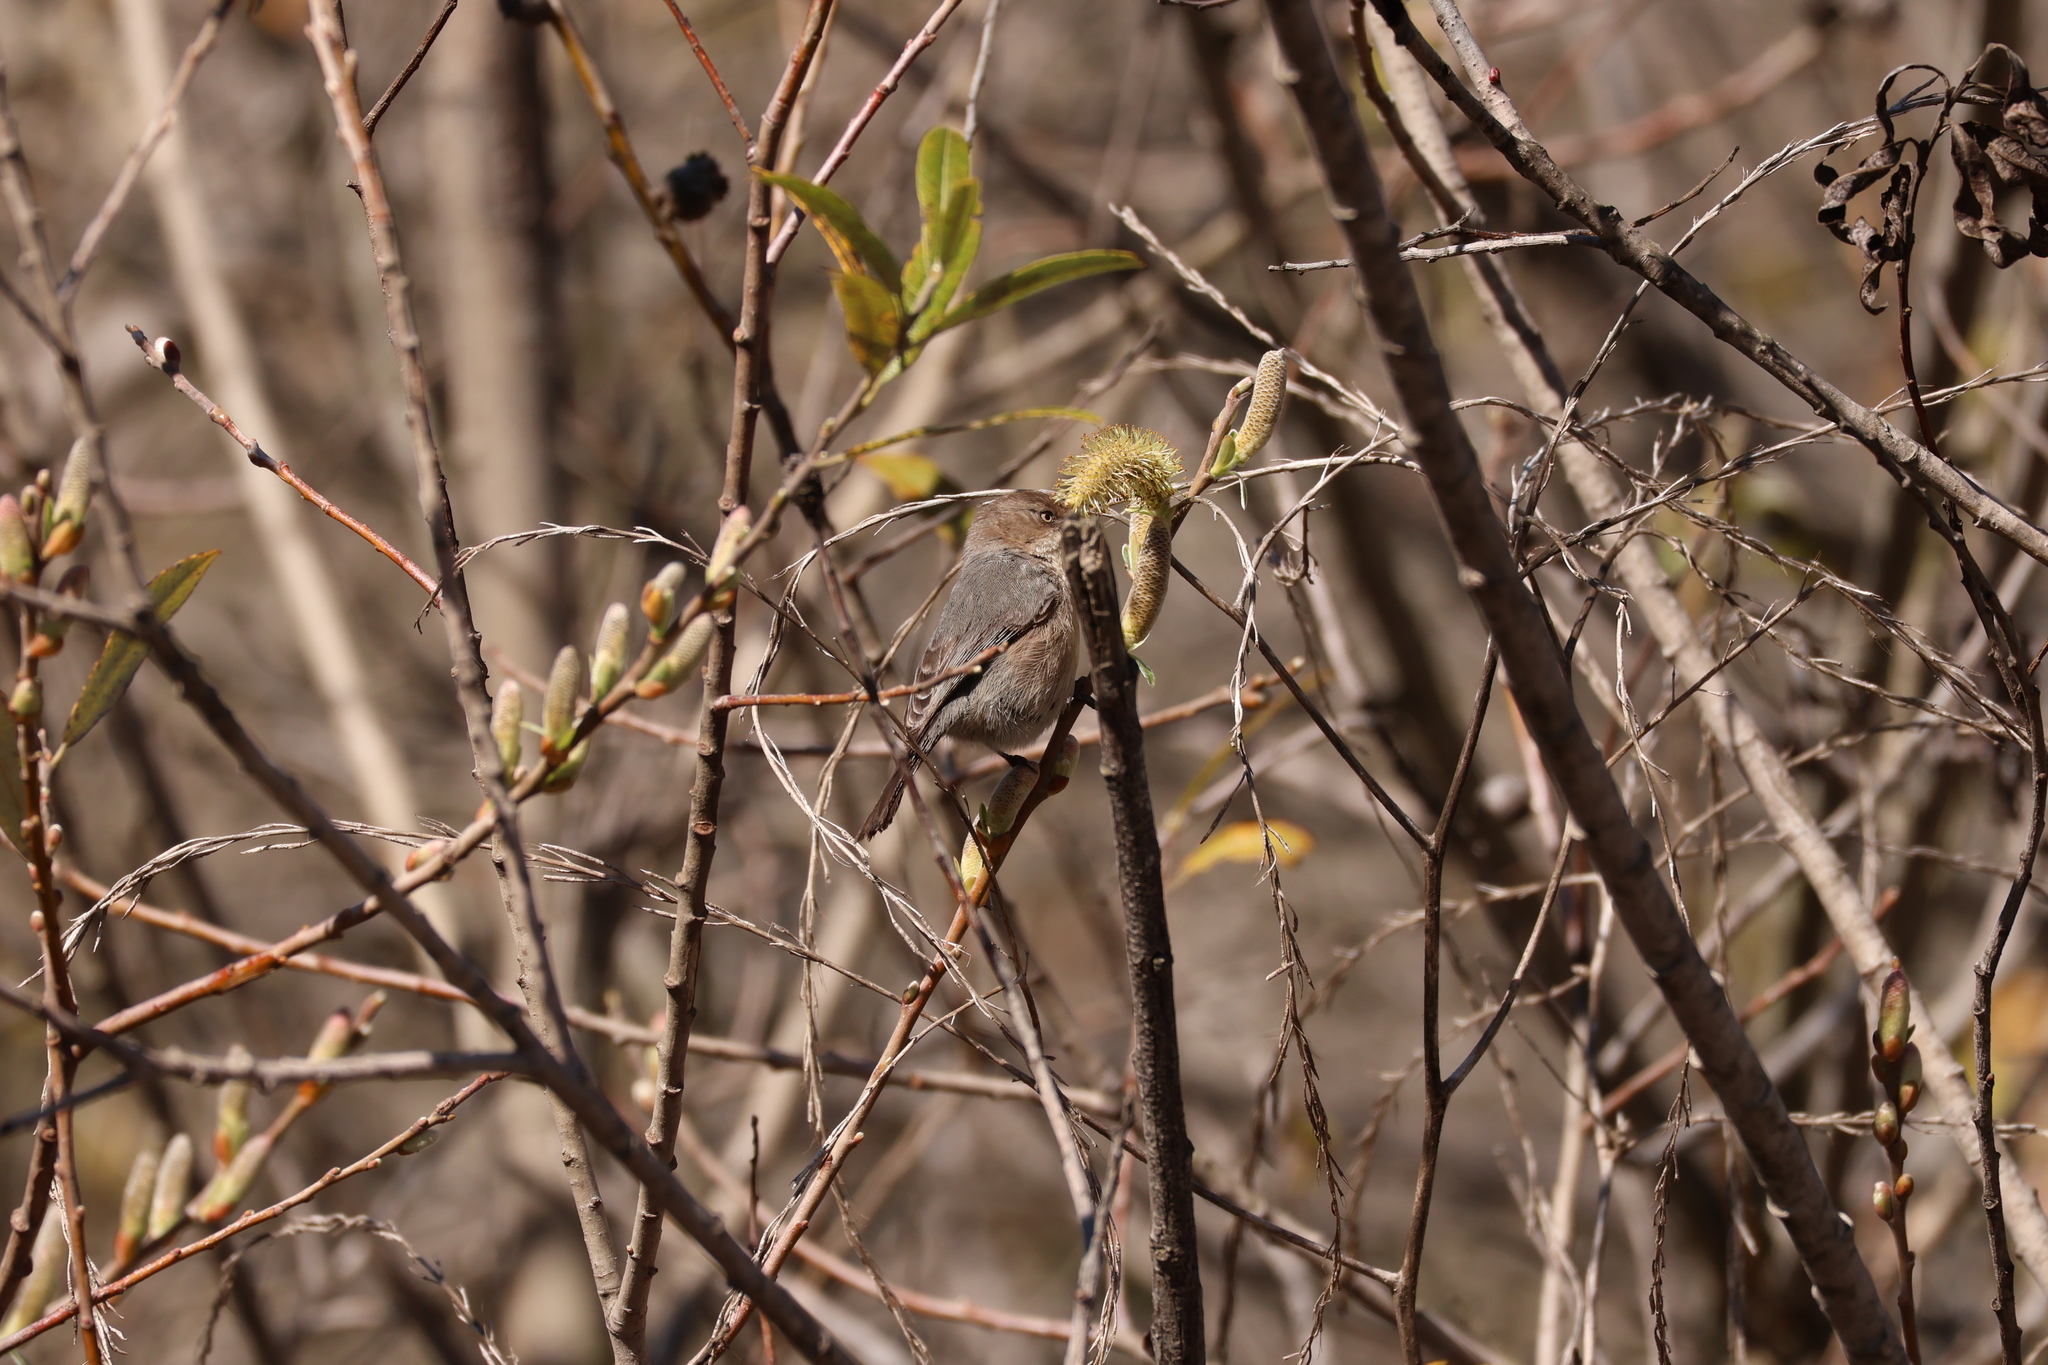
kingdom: Animalia
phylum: Chordata
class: Aves
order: Passeriformes
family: Aegithalidae
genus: Psaltriparus
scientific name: Psaltriparus minimus
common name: American bushtit
